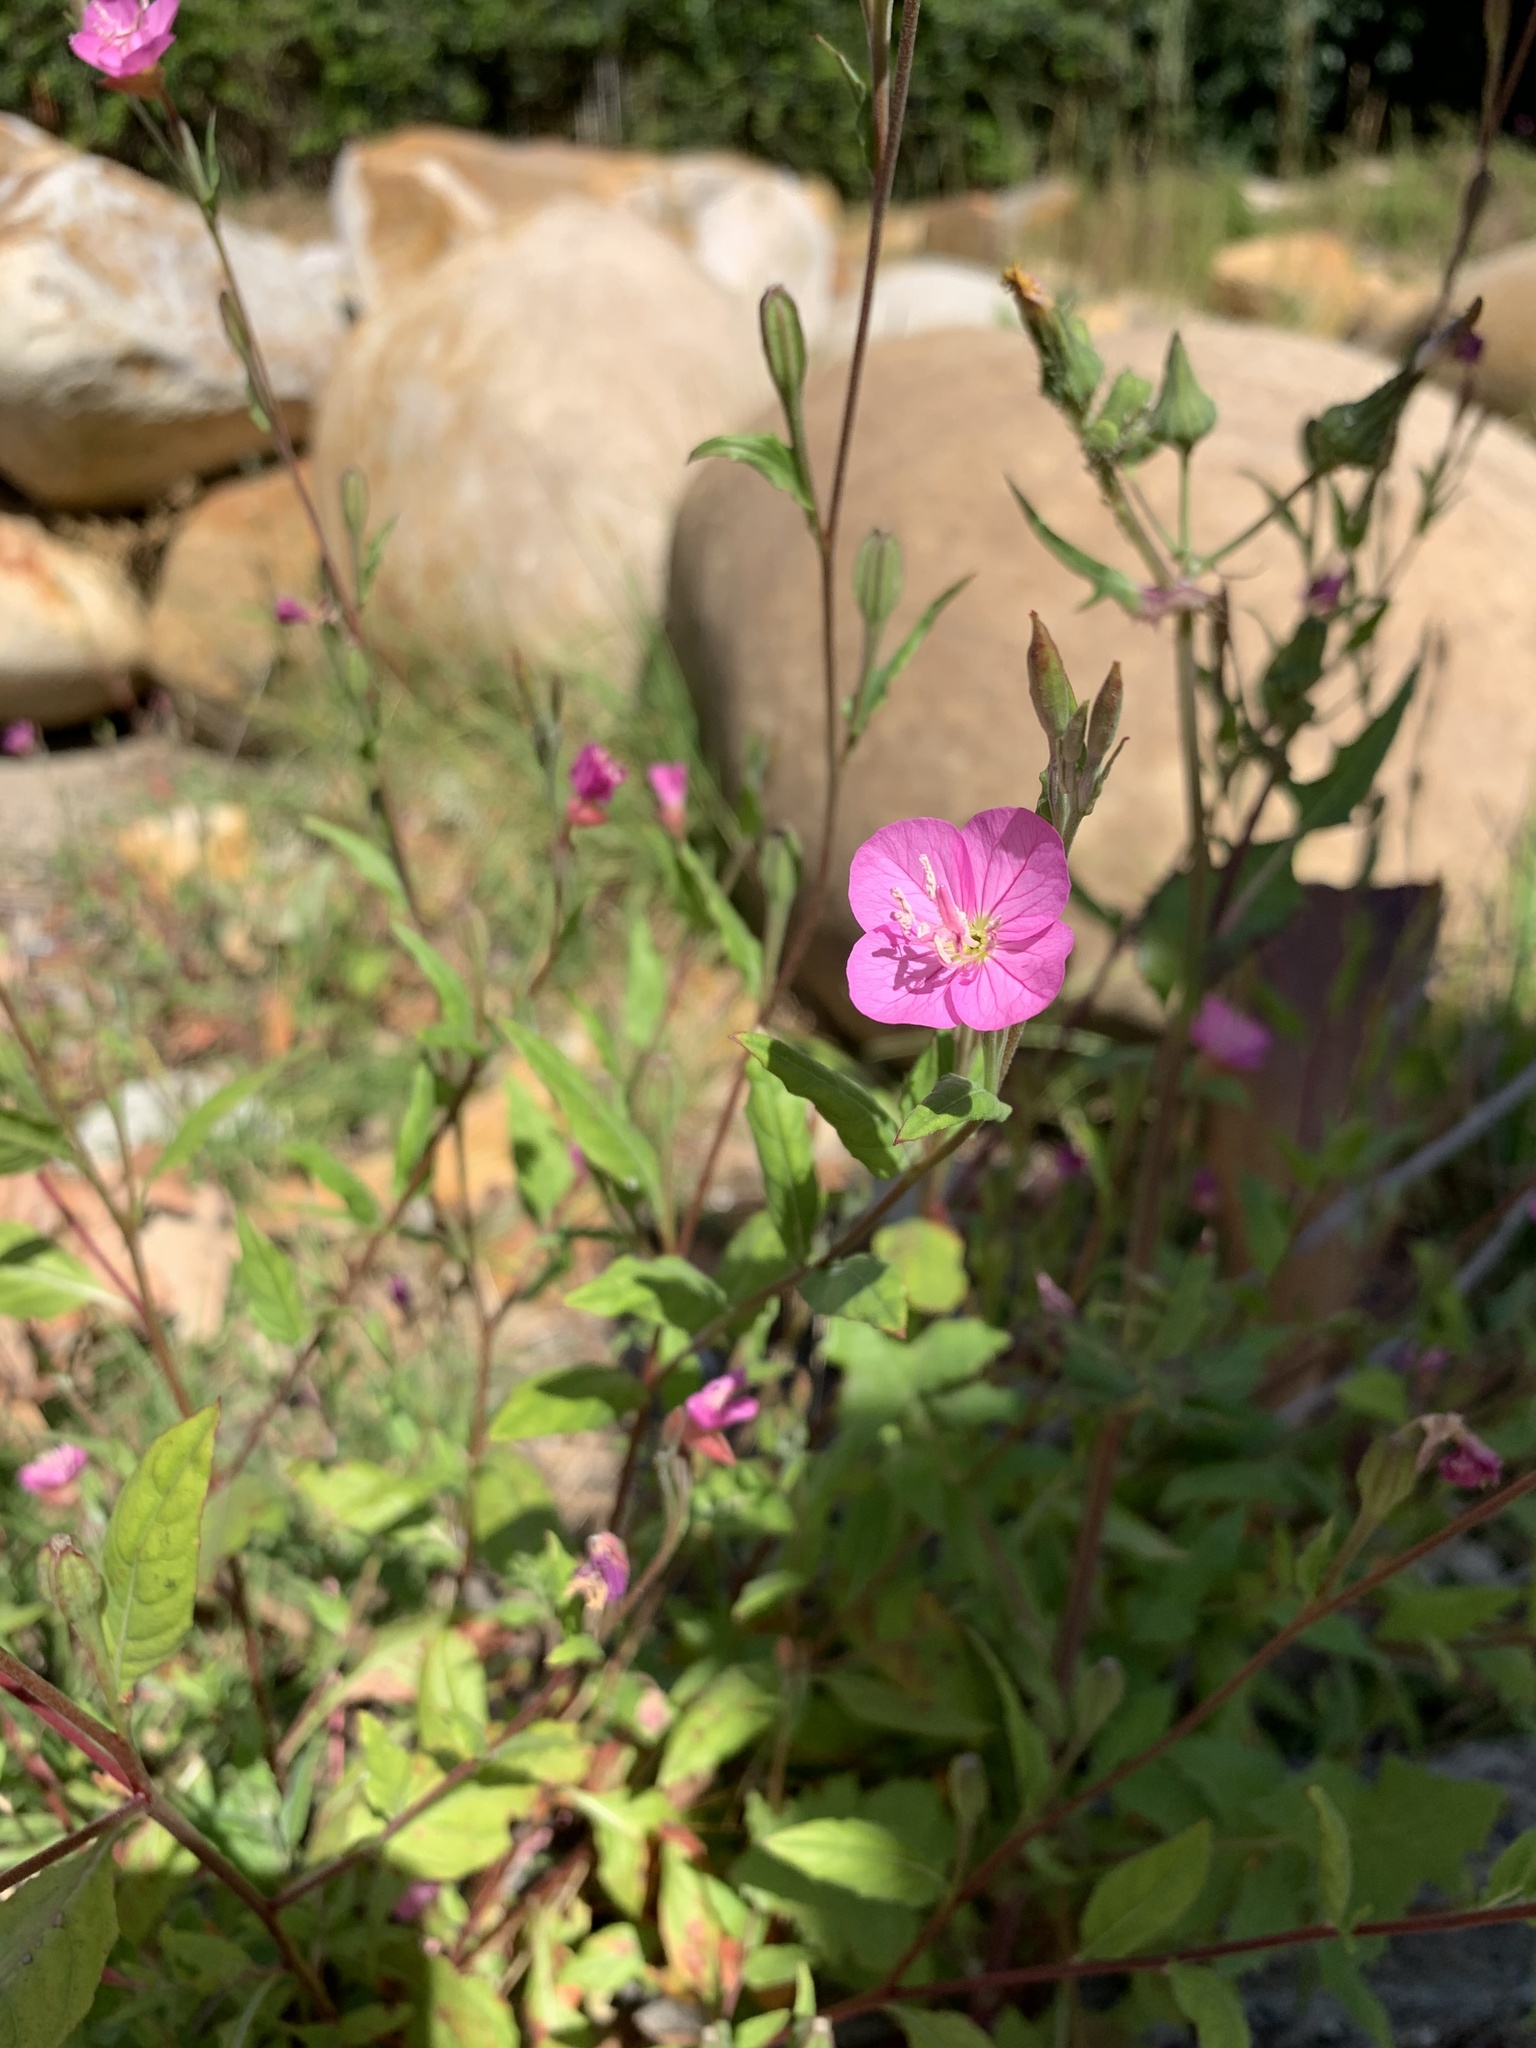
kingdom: Plantae
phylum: Tracheophyta
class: Magnoliopsida
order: Myrtales
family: Onagraceae
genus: Oenothera
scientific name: Oenothera rosea
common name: Rosy evening-primrose
